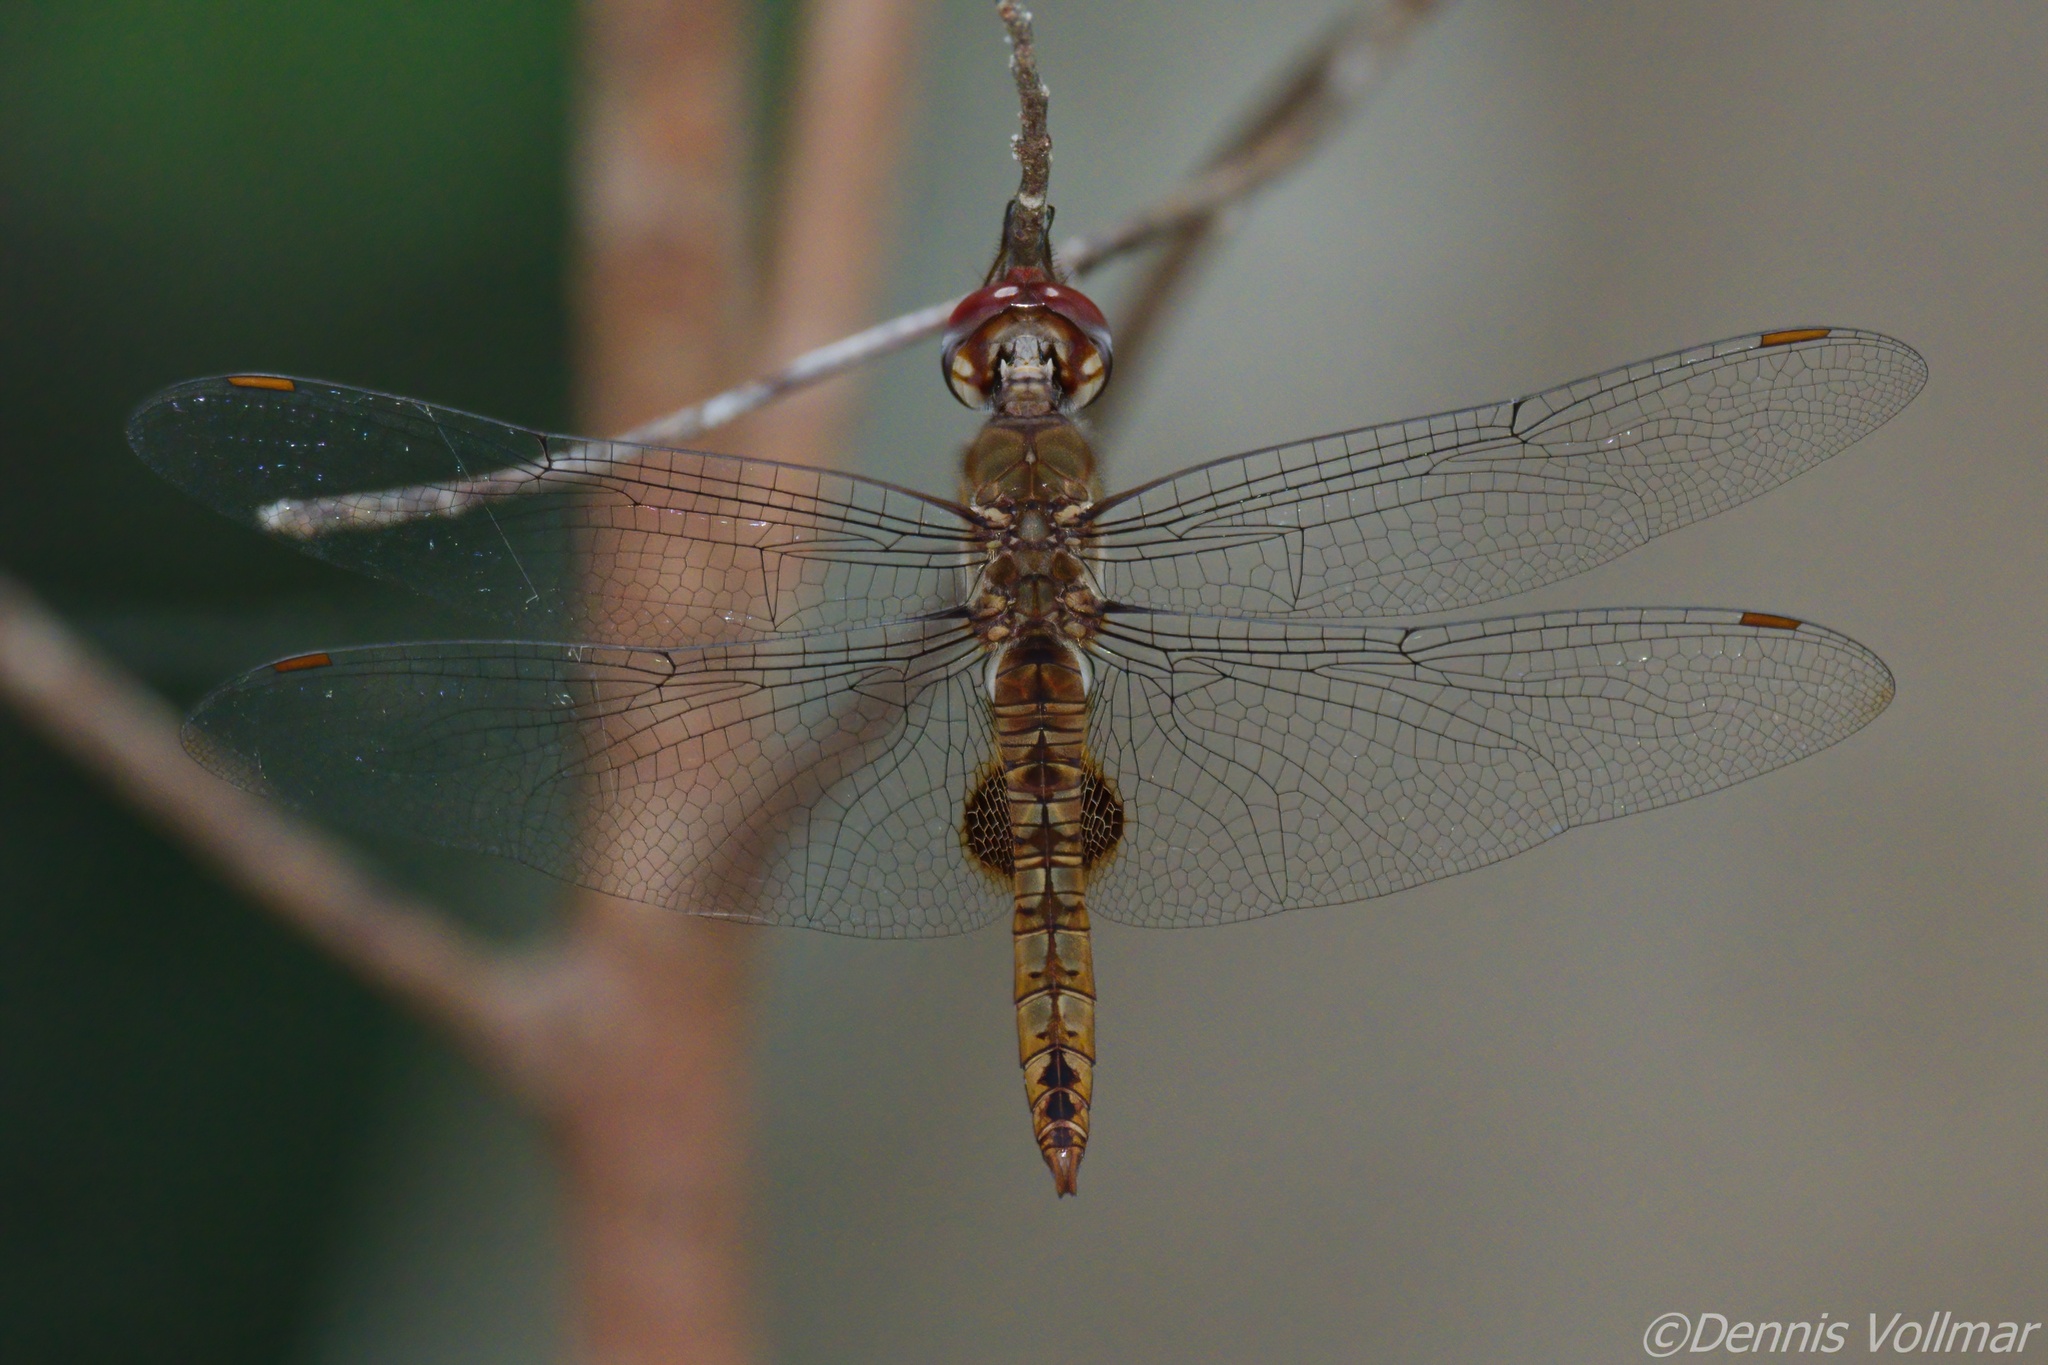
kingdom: Animalia
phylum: Arthropoda
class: Insecta
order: Odonata
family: Libellulidae
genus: Pantala
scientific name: Pantala hymenaea
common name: Spot-winged glider
